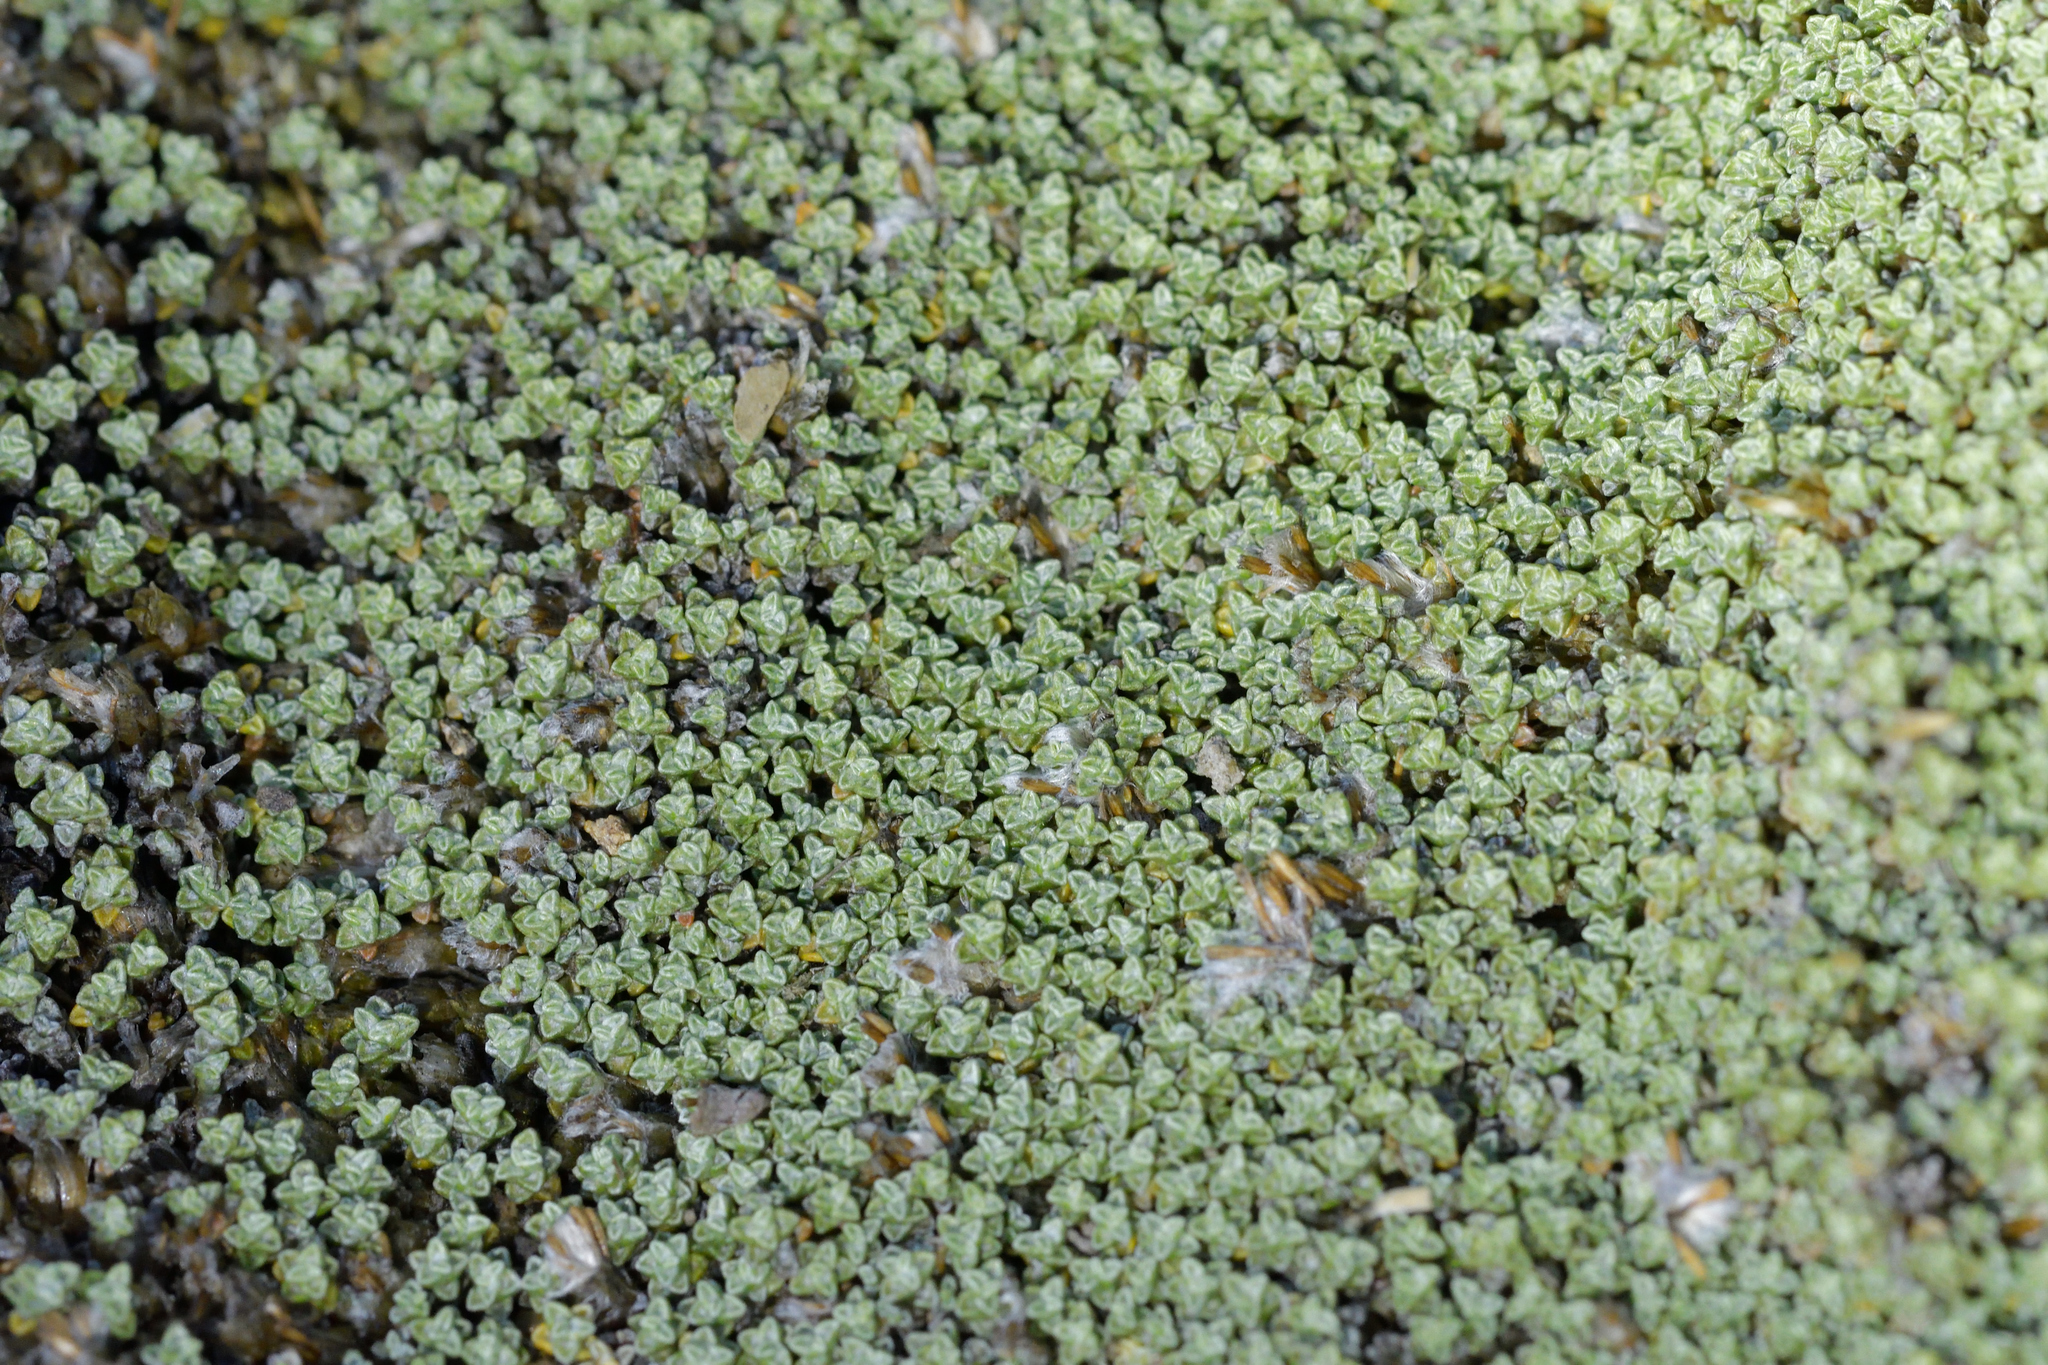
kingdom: Plantae
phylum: Tracheophyta
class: Magnoliopsida
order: Asterales
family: Asteraceae
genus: Raoulia
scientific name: Raoulia australis
